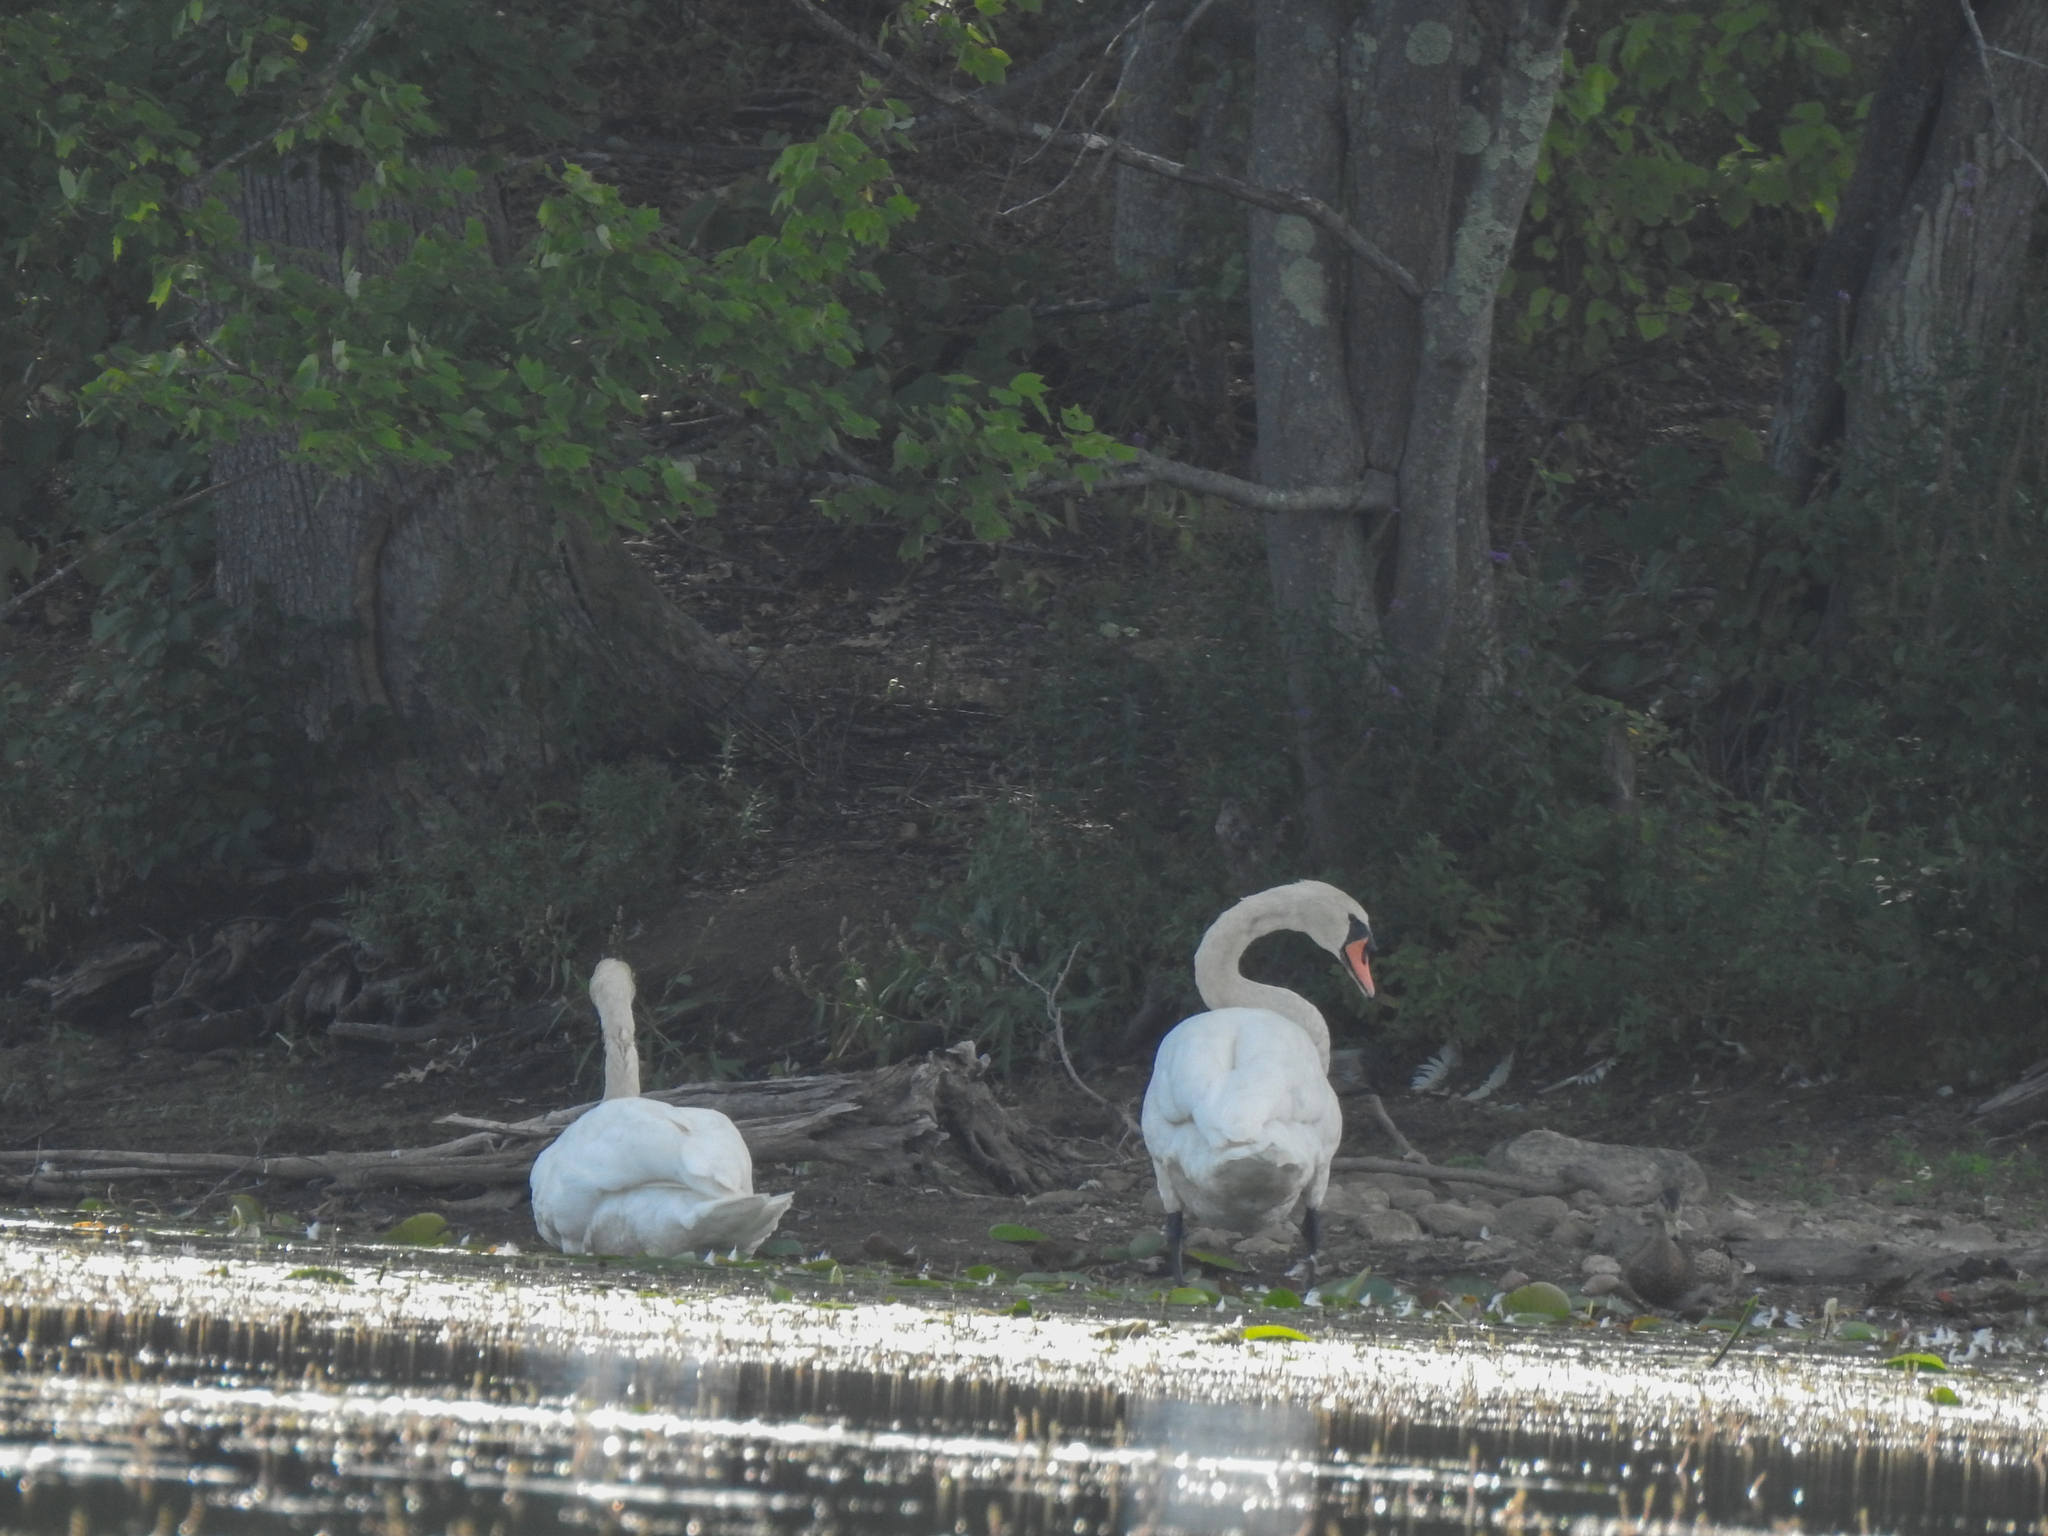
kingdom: Animalia
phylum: Chordata
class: Aves
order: Anseriformes
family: Anatidae
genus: Cygnus
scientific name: Cygnus olor
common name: Mute swan
